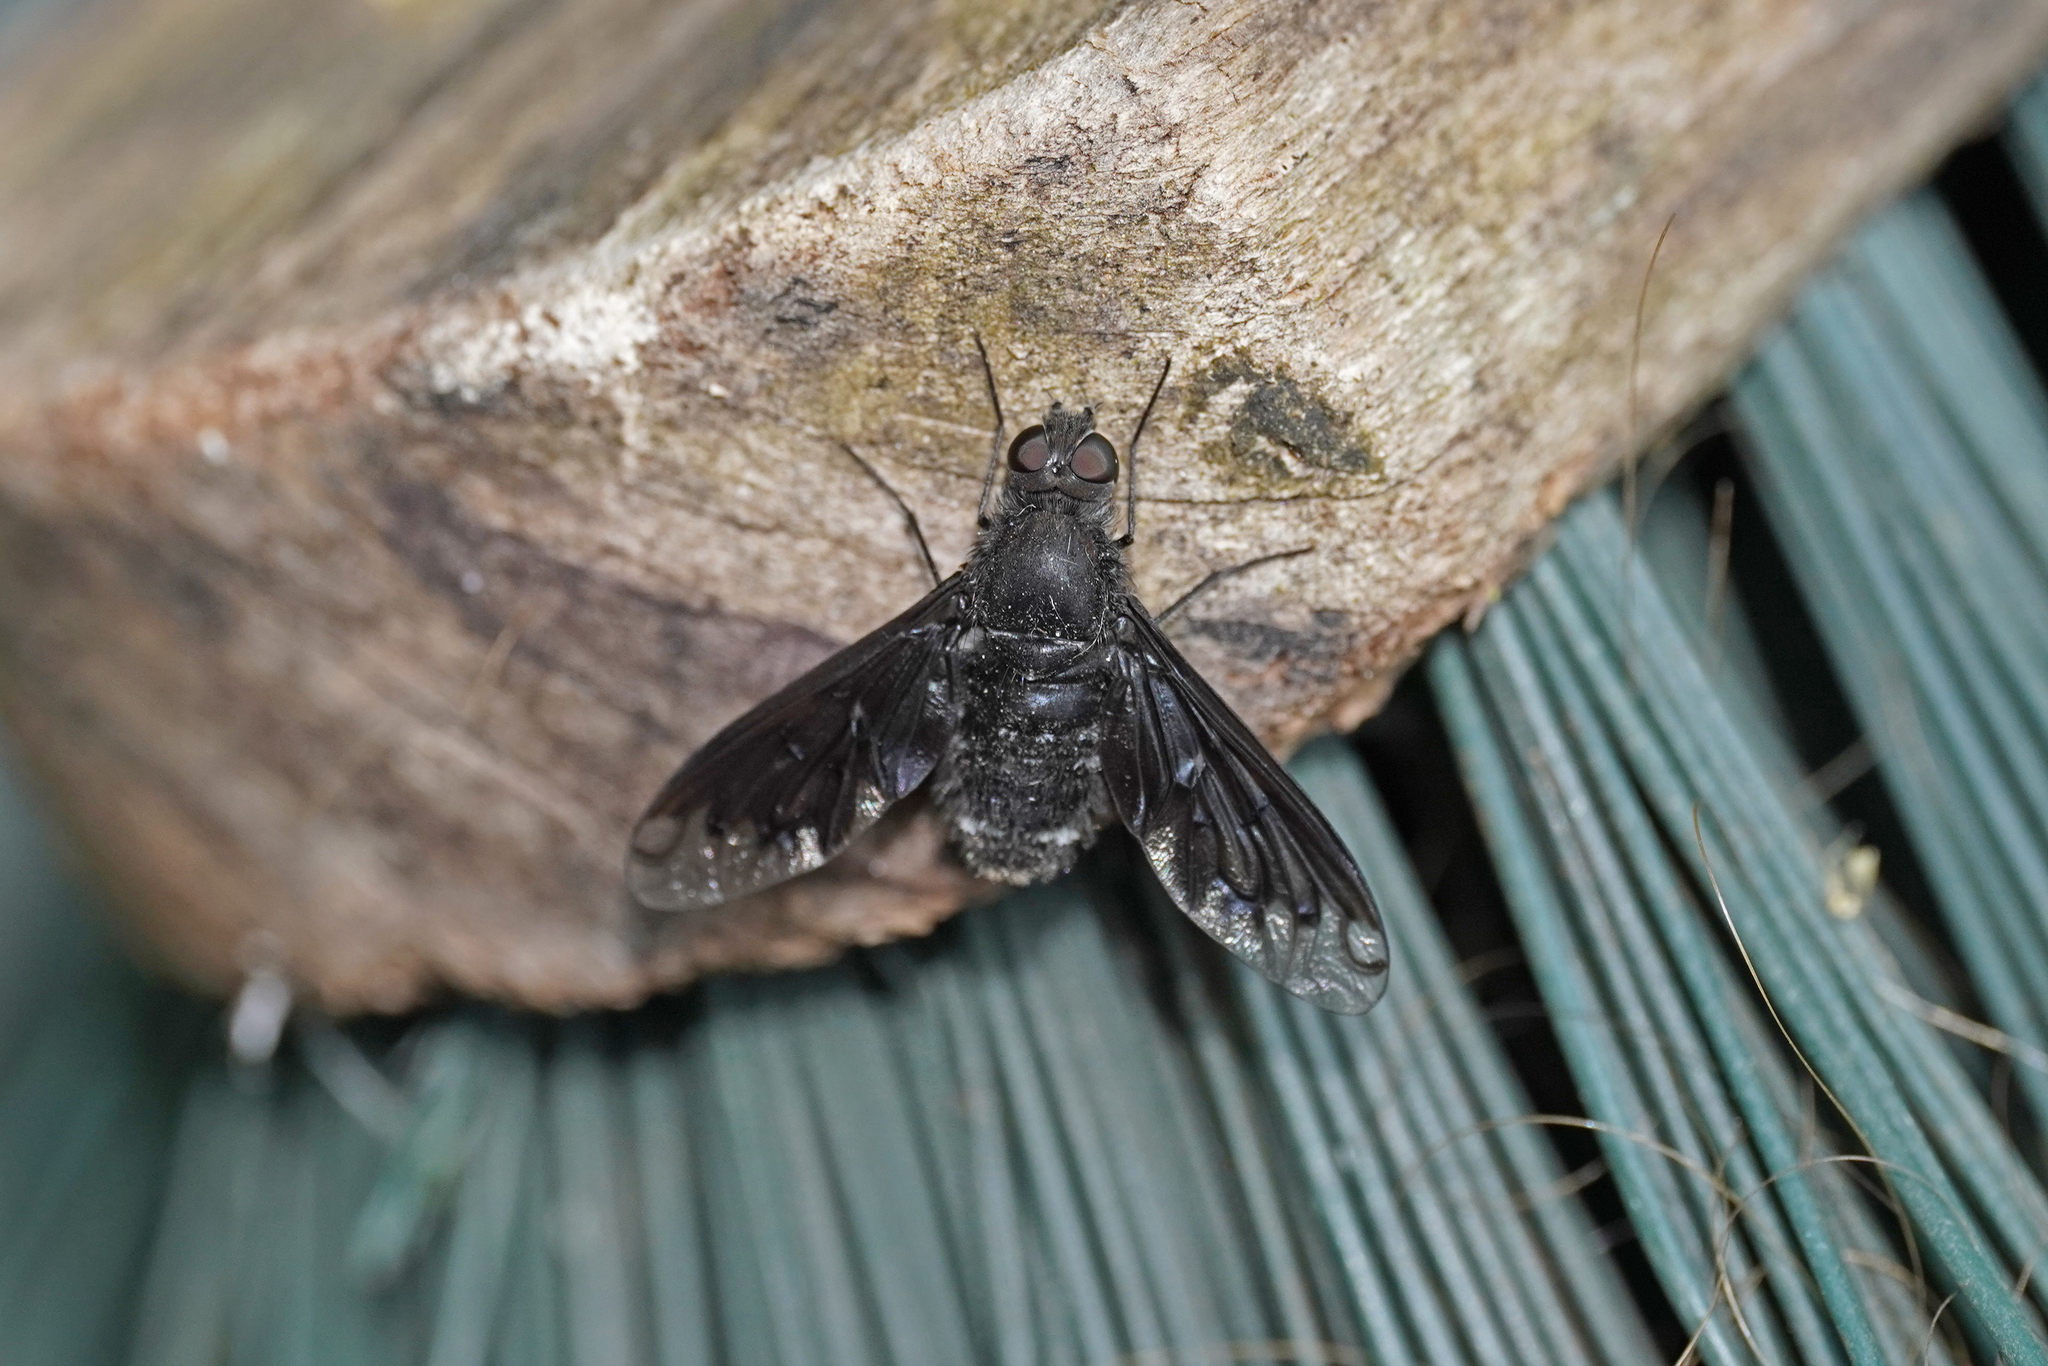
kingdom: Animalia
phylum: Arthropoda
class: Insecta
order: Diptera
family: Bombyliidae
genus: Anthrax
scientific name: Anthrax anthrax
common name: Anthracite bee-fly
